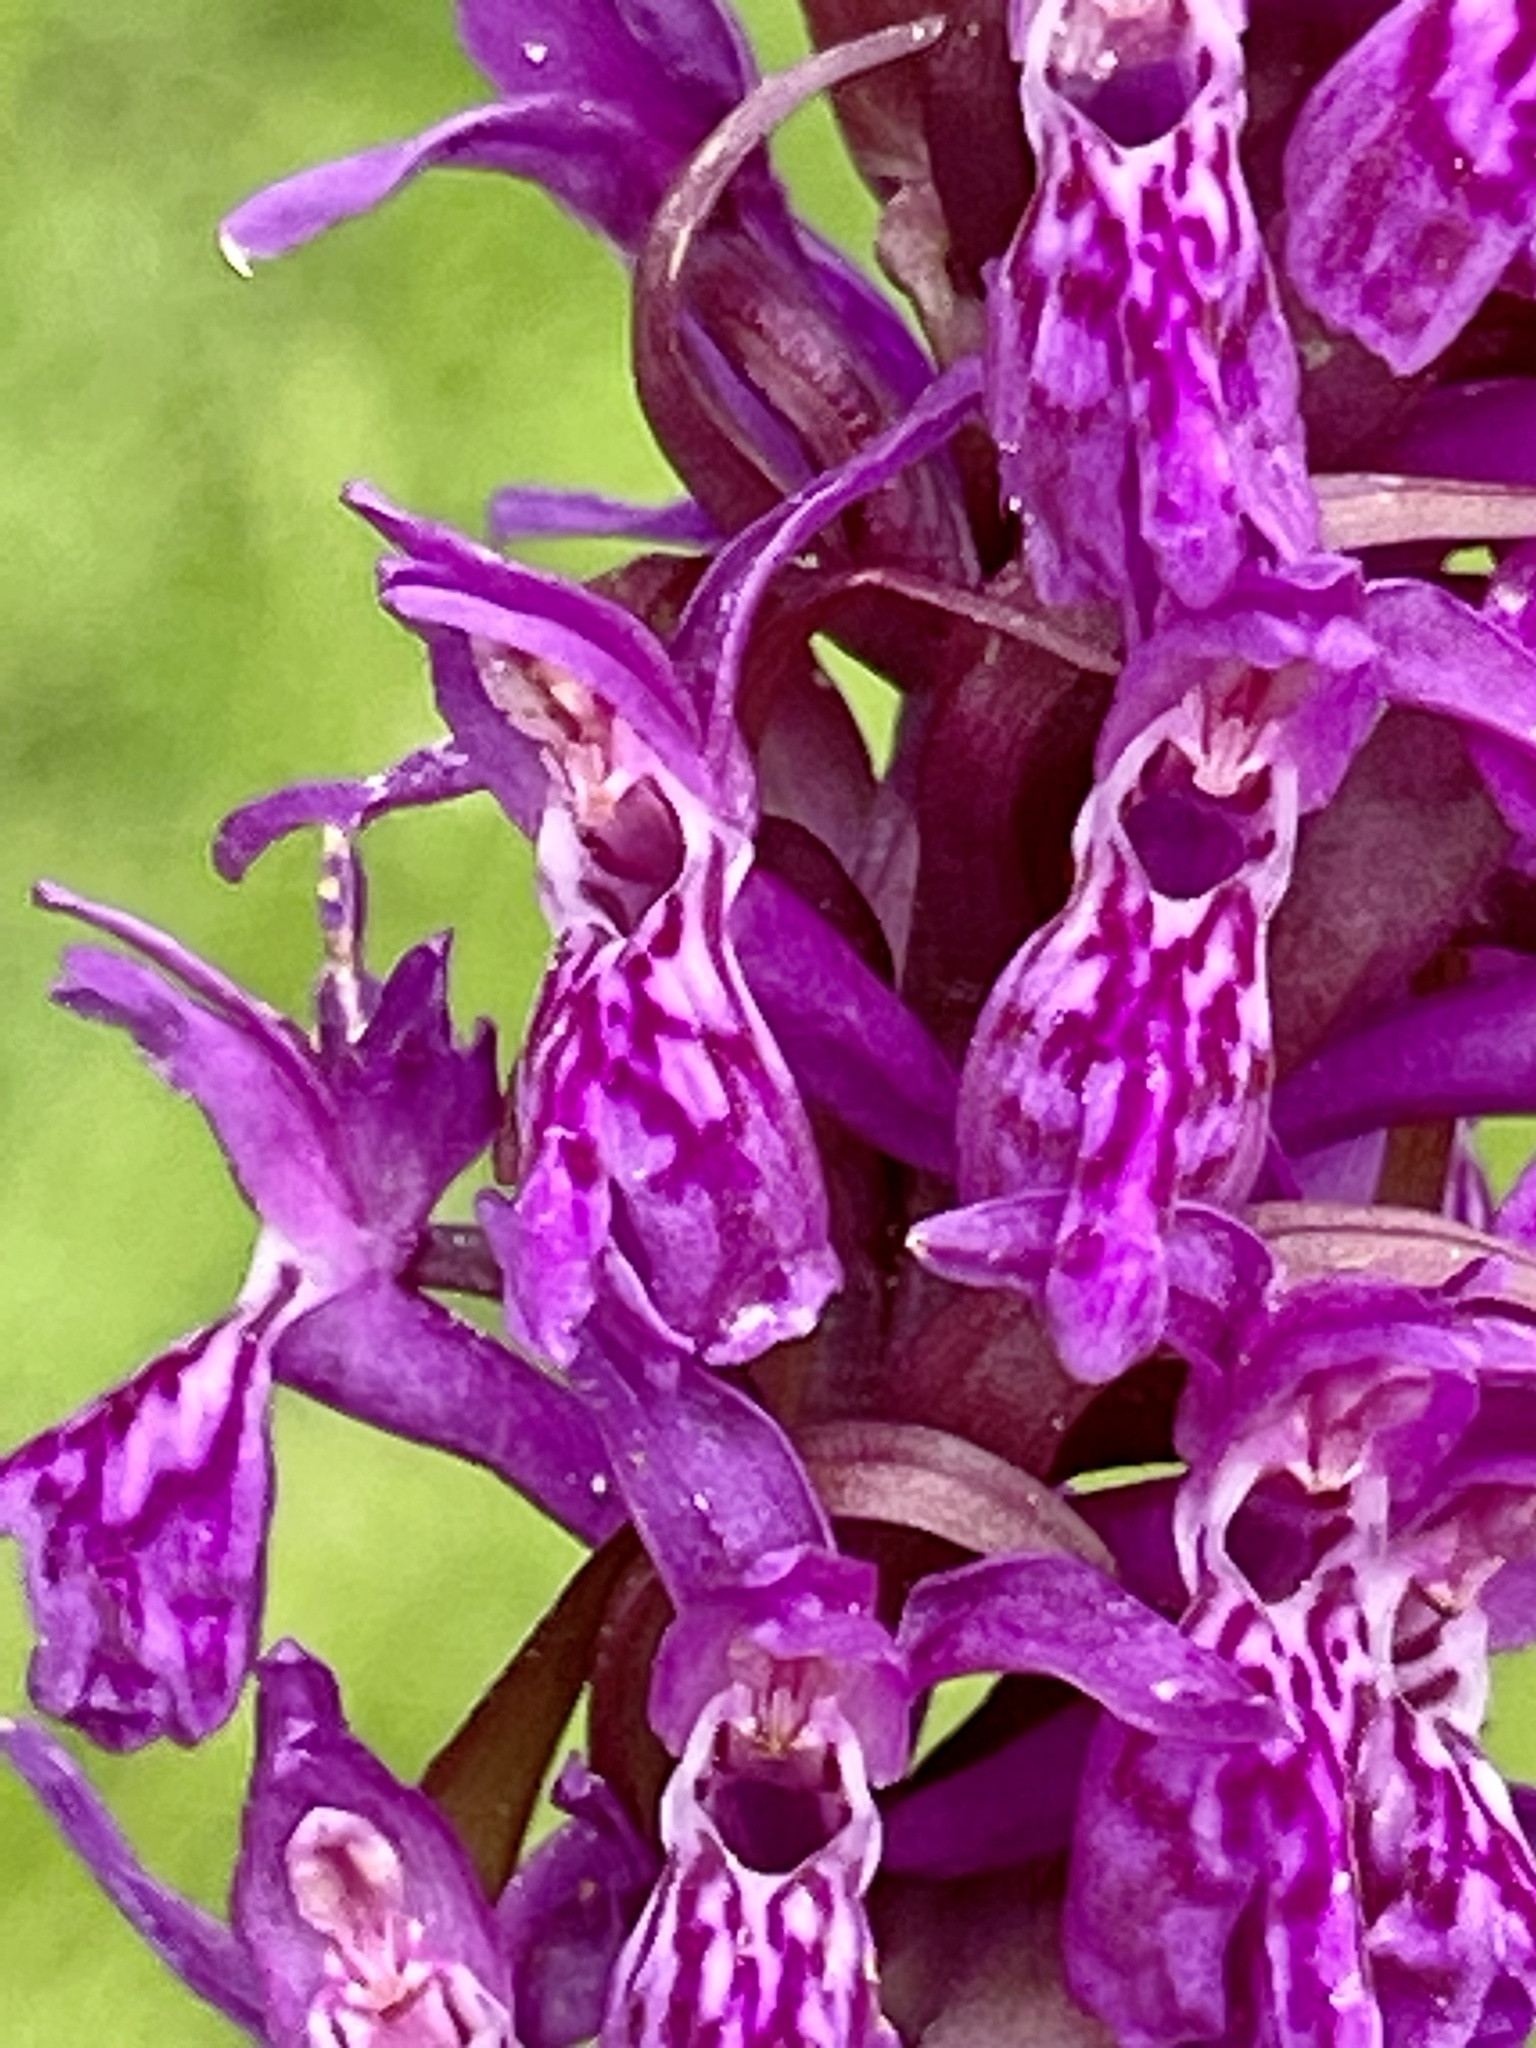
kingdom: Plantae
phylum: Tracheophyta
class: Liliopsida
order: Asparagales
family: Orchidaceae
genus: Dactylorhiza
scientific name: Dactylorhiza majalis
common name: Marsh orchid
